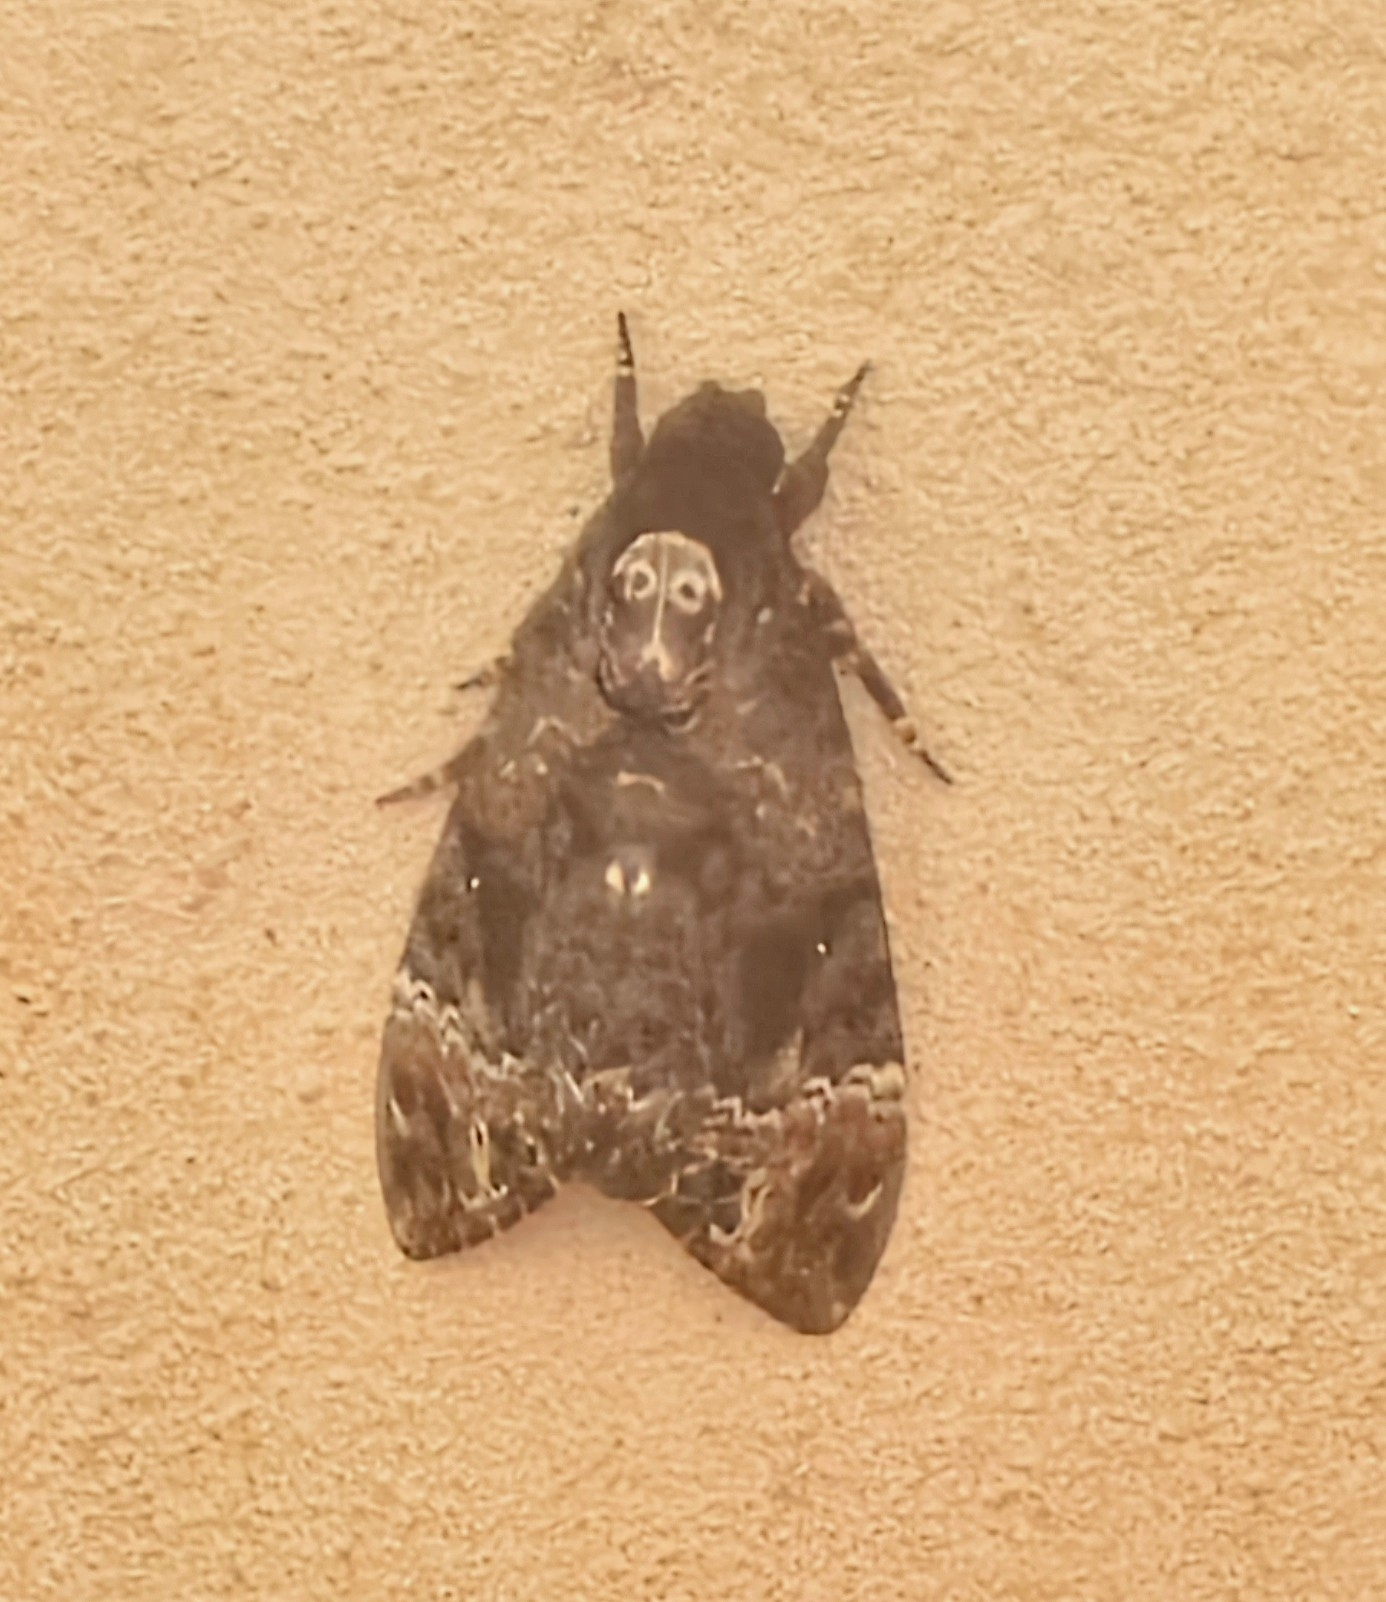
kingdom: Animalia
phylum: Arthropoda
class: Insecta
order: Lepidoptera
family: Sphingidae
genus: Acherontia
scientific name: Acherontia lachesis
